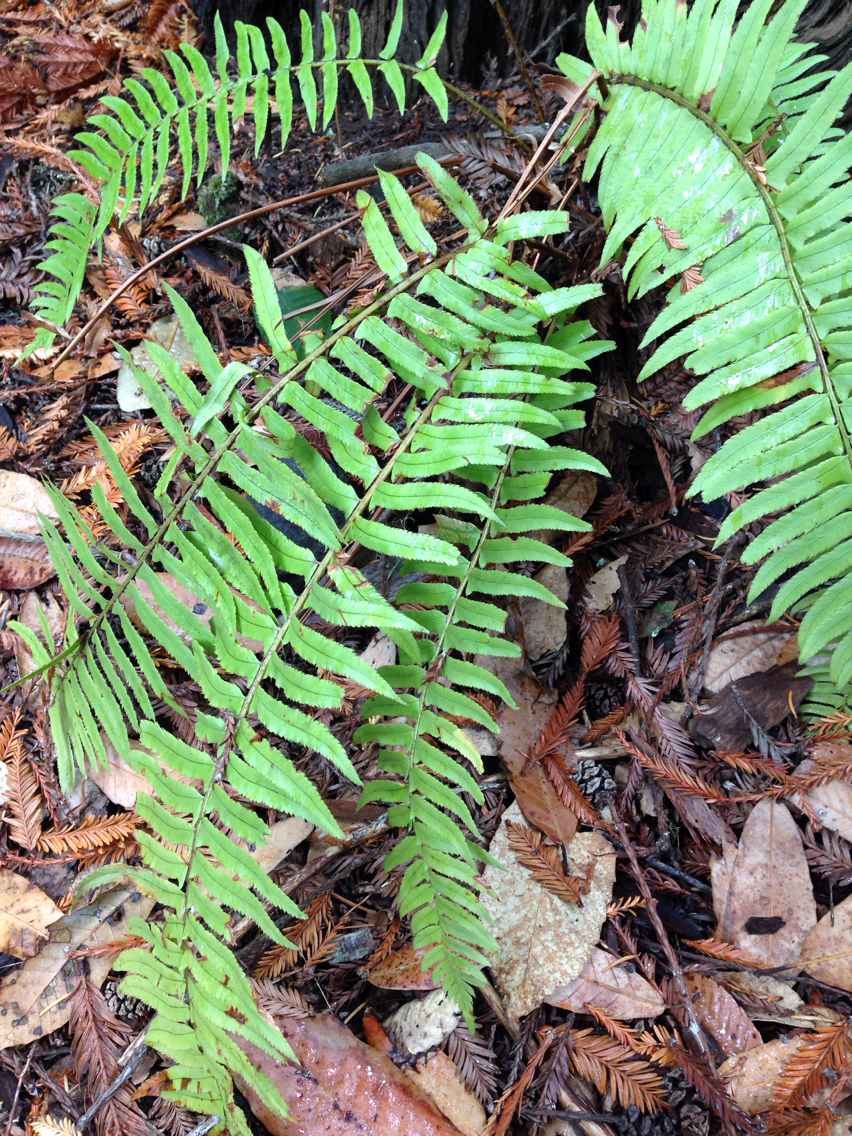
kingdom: Plantae
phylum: Tracheophyta
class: Polypodiopsida
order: Polypodiales
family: Dryopteridaceae
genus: Polystichum
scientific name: Polystichum munitum
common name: Western sword-fern
